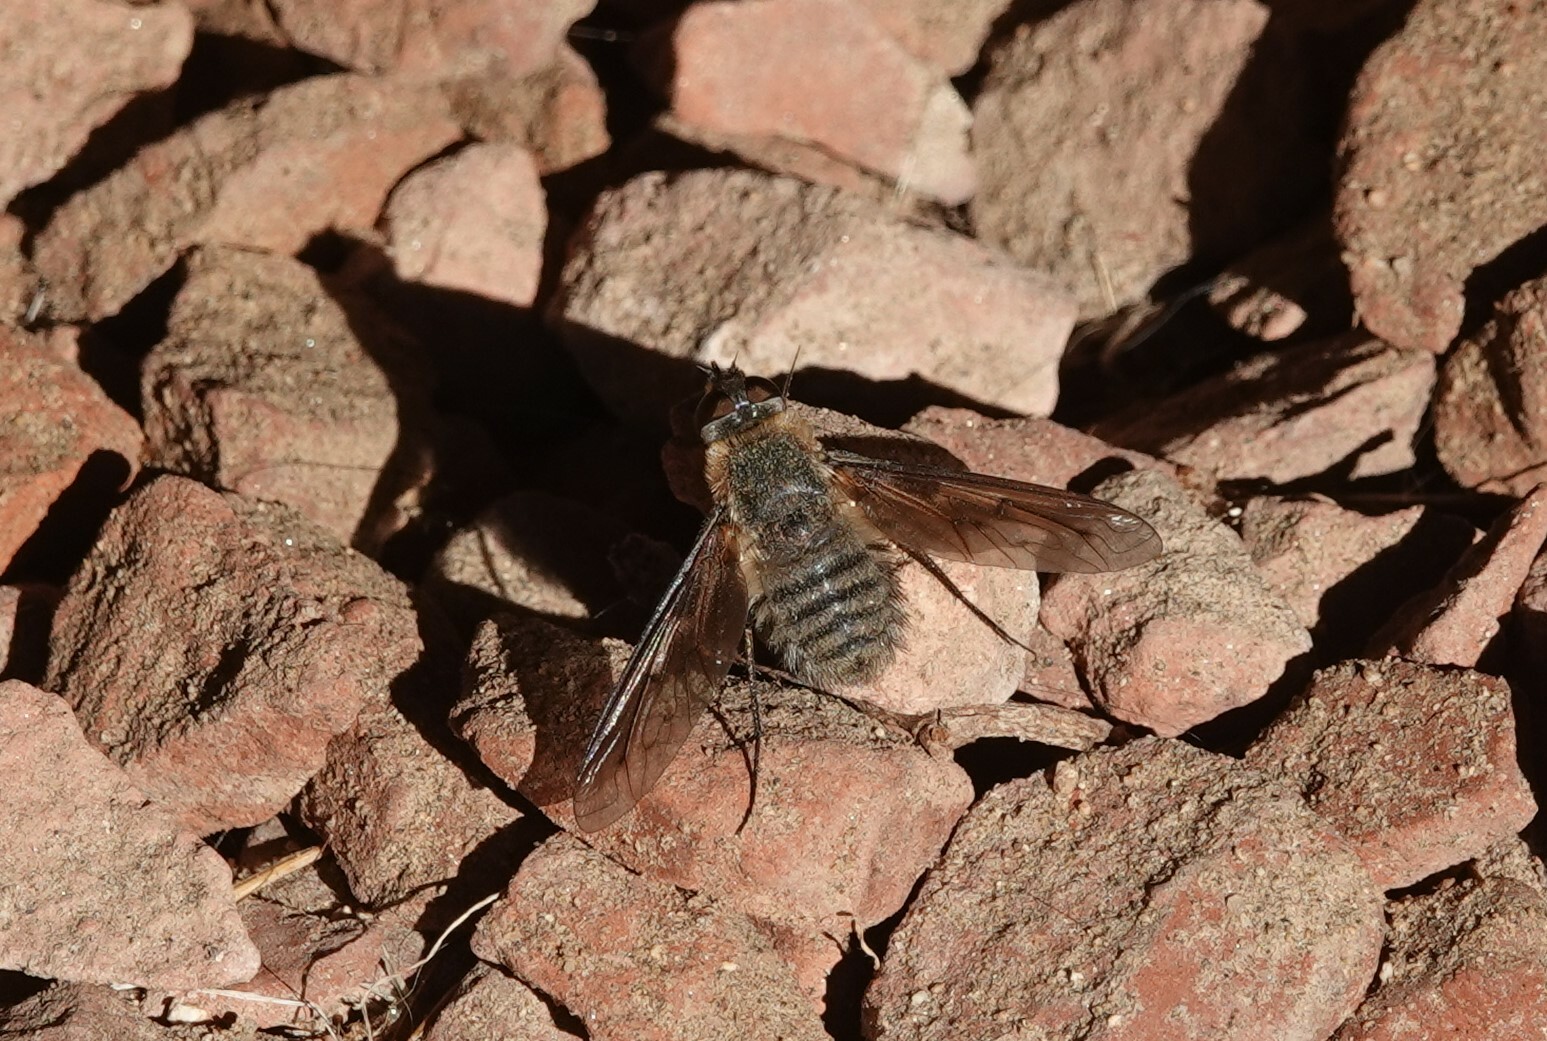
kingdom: Animalia
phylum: Arthropoda
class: Insecta
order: Diptera
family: Bombyliidae
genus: Poecilanthrax
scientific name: Poecilanthrax hyalinipennis
